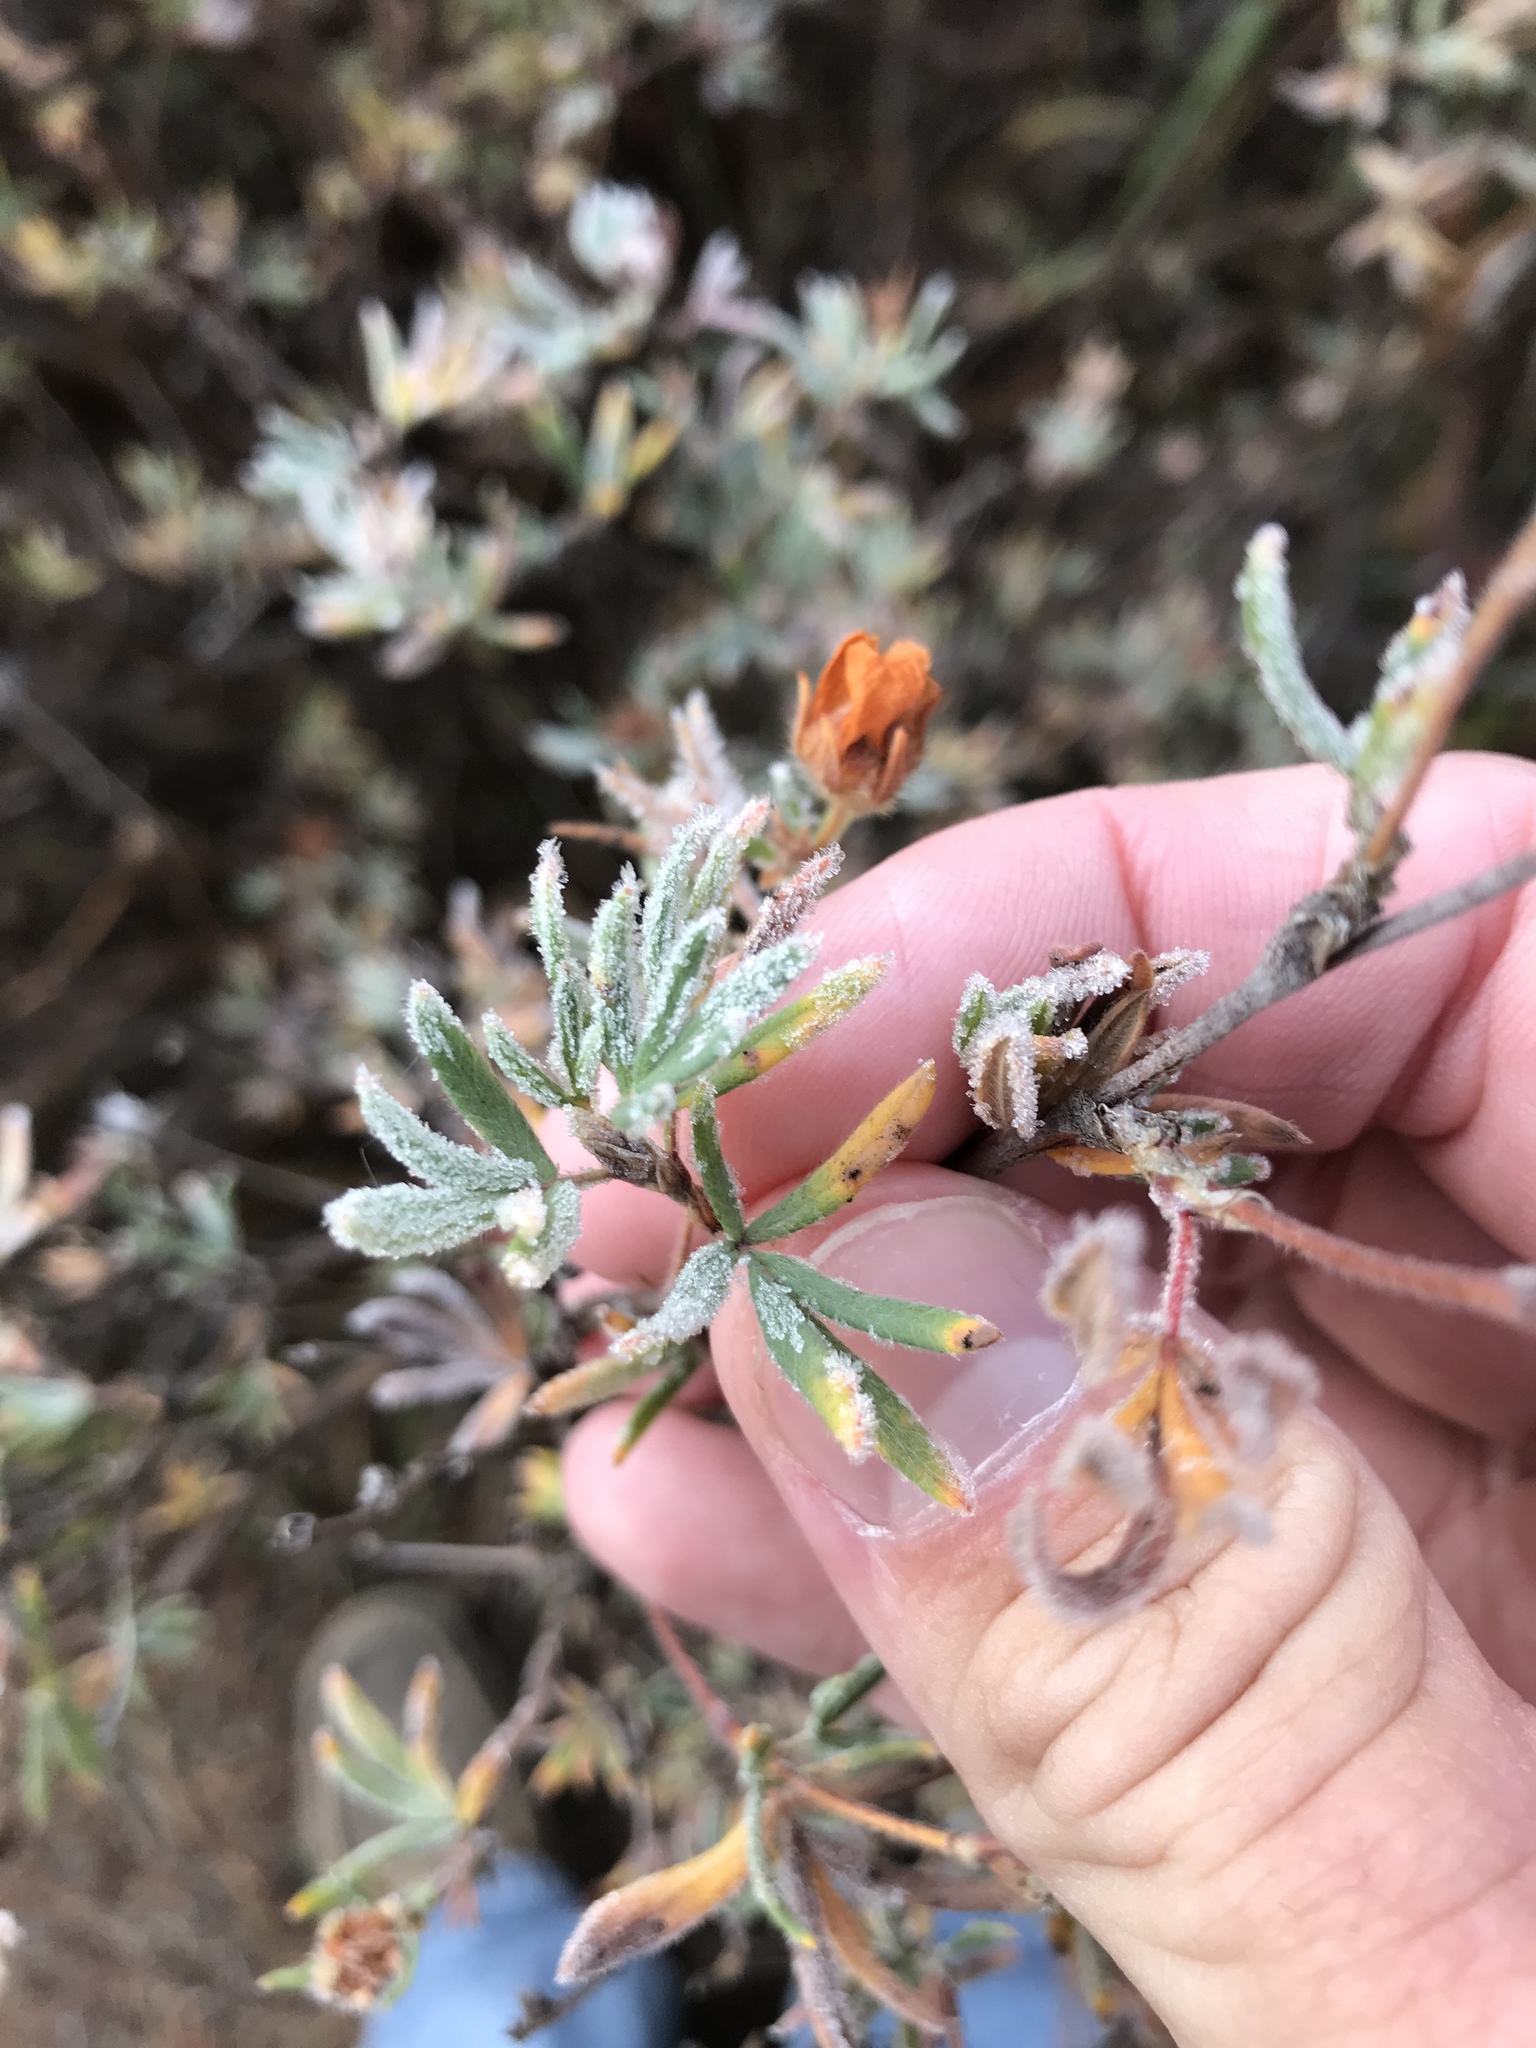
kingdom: Plantae
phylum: Tracheophyta
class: Magnoliopsida
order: Rosales
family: Rosaceae
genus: Dasiphora
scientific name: Dasiphora fruticosa
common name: Shrubby cinquefoil
